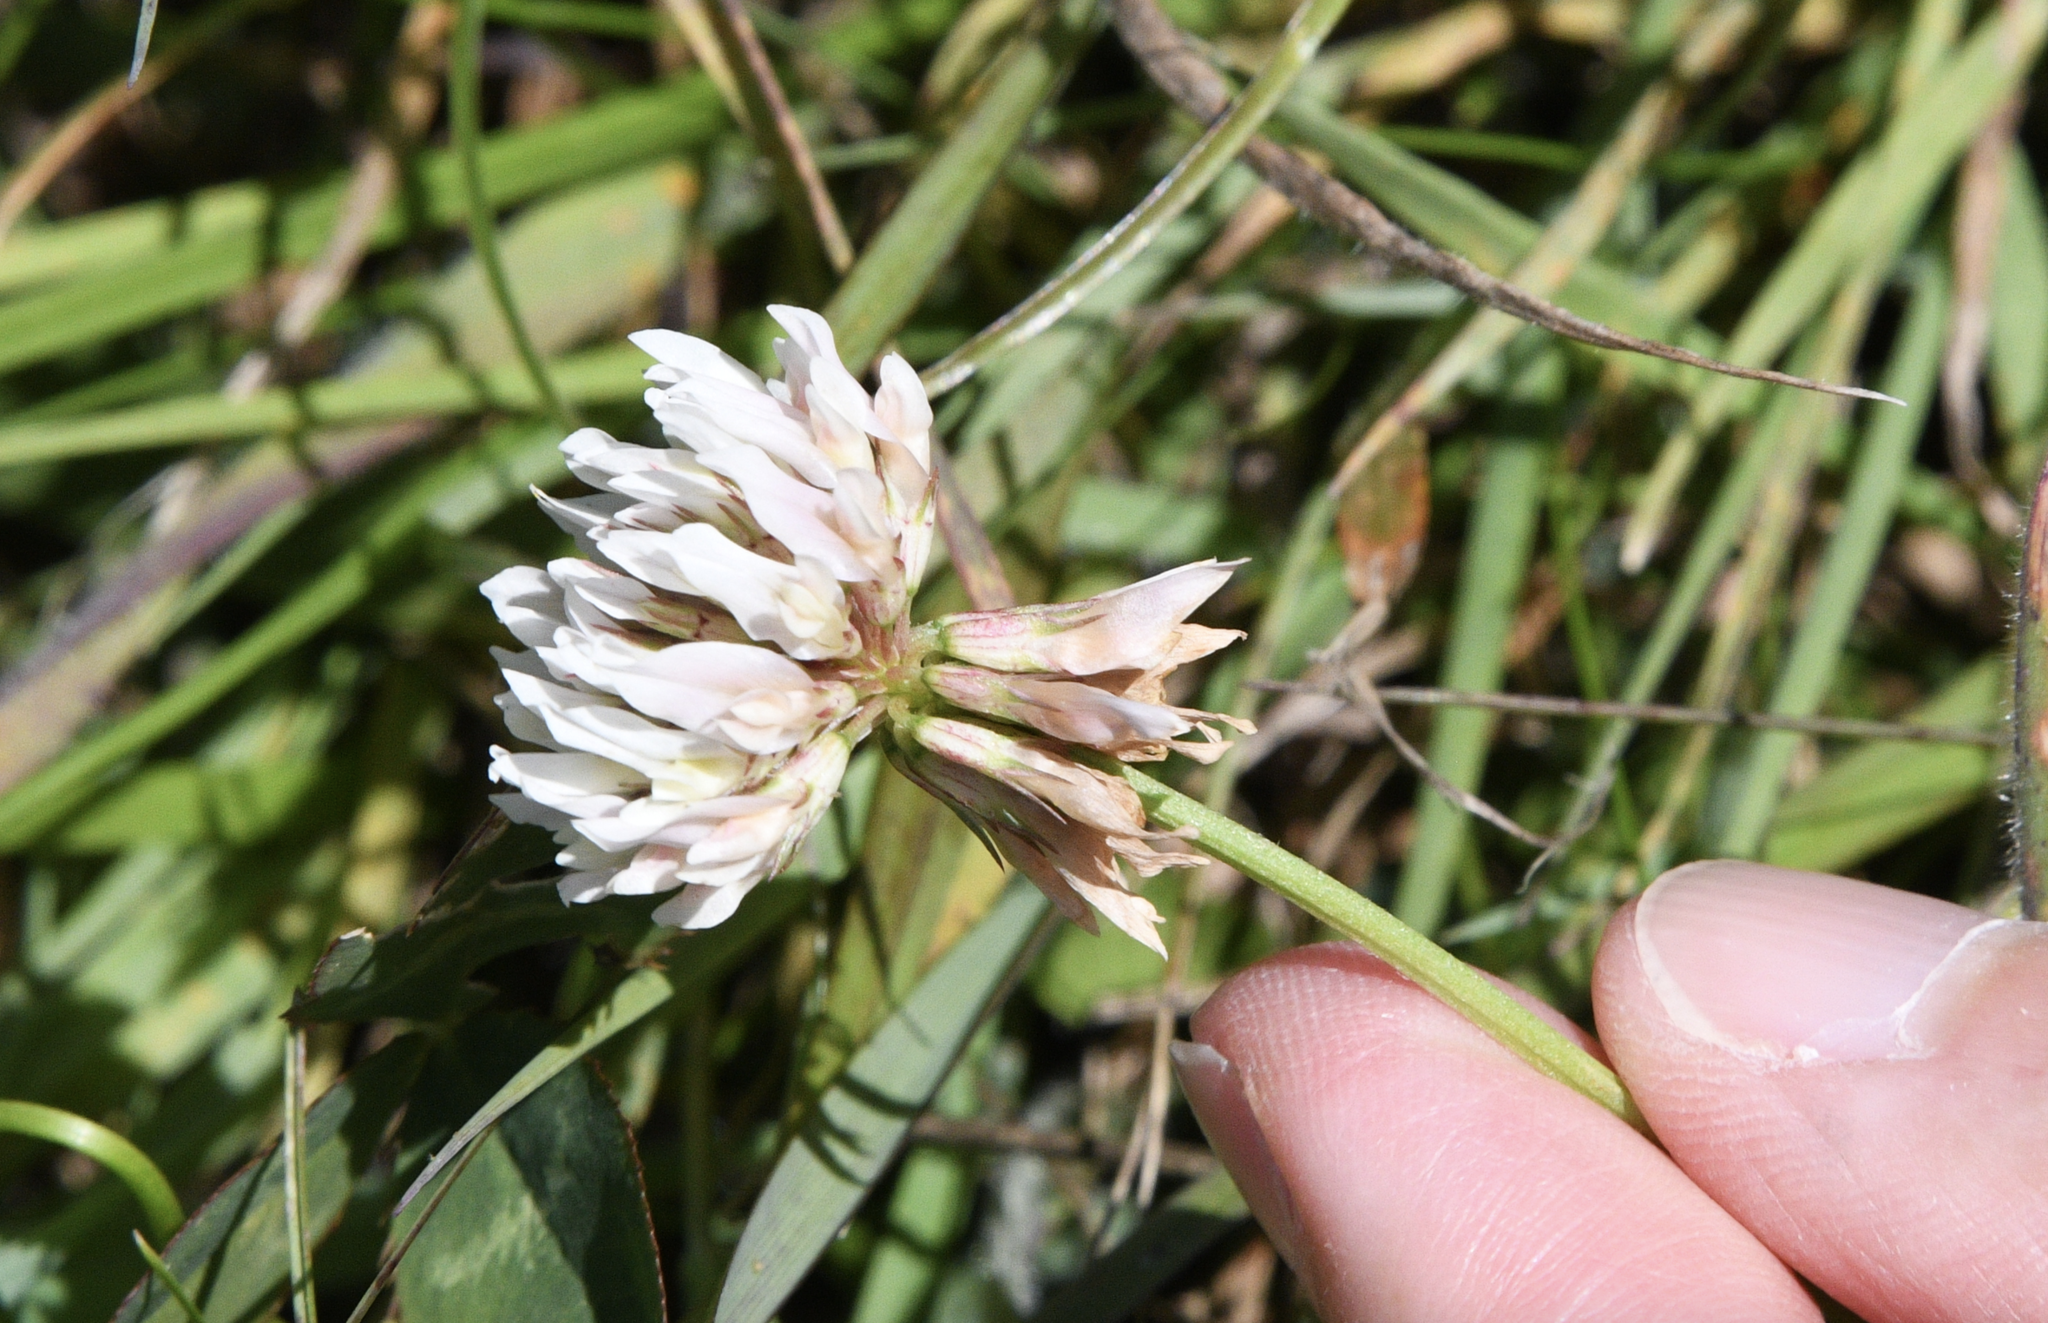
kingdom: Plantae
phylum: Tracheophyta
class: Magnoliopsida
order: Fabales
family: Fabaceae
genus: Trifolium
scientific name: Trifolium repens
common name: White clover
